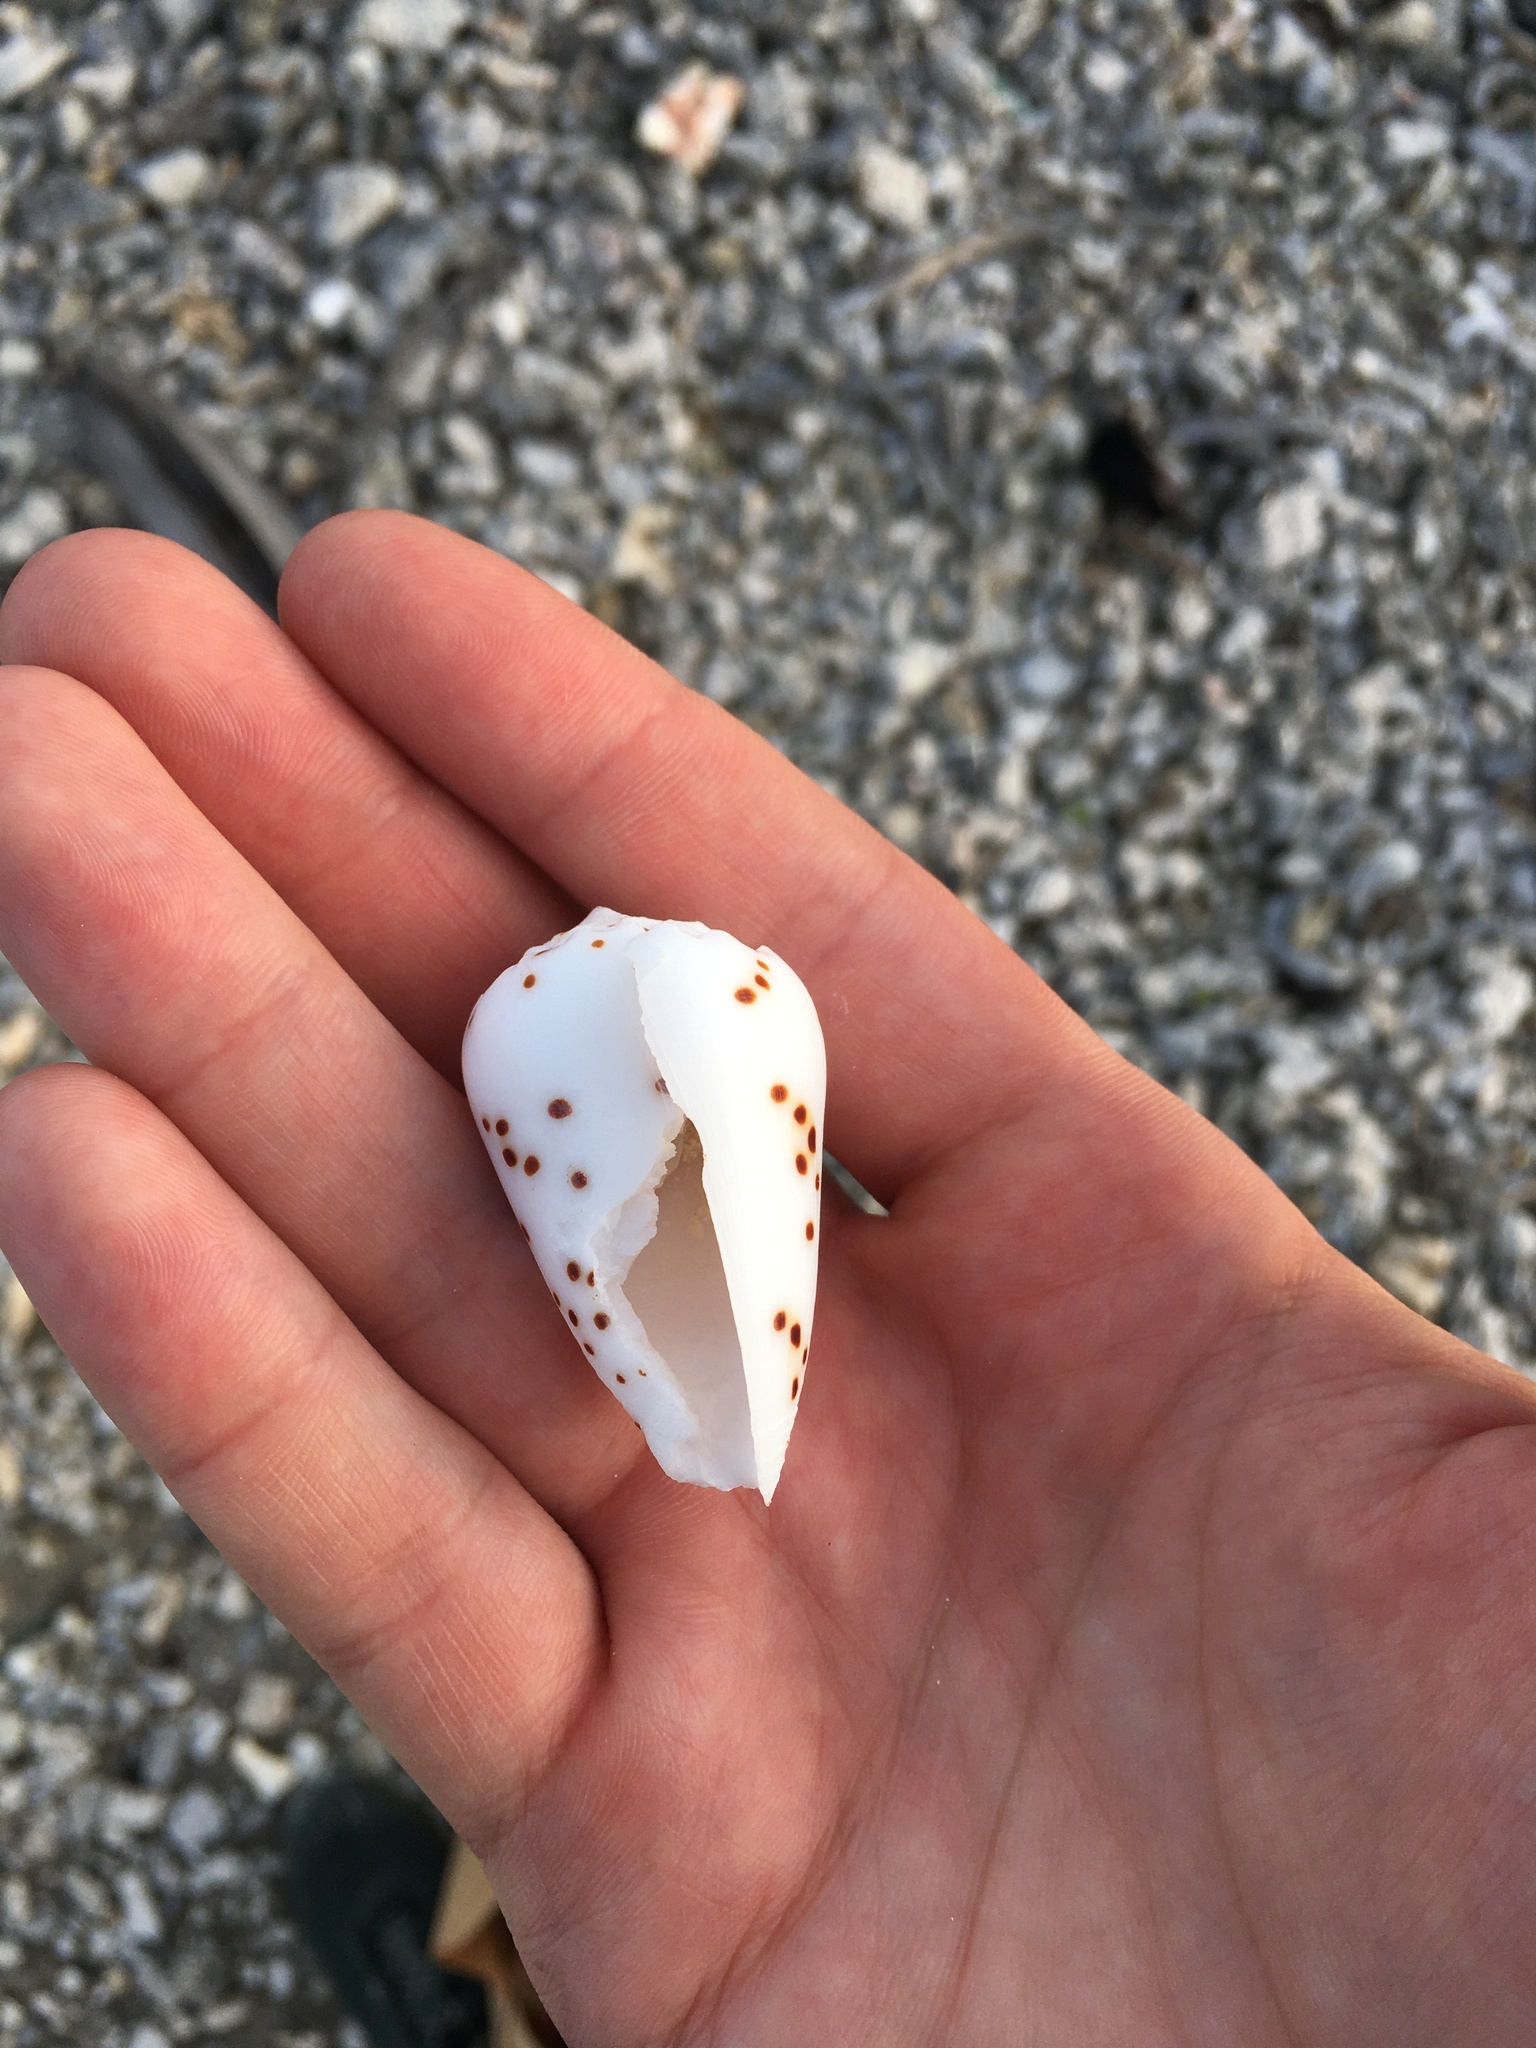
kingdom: Animalia
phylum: Mollusca
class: Gastropoda
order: Neogastropoda
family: Conidae
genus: Conus
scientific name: Conus pulicarius
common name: Flea-bite cone
